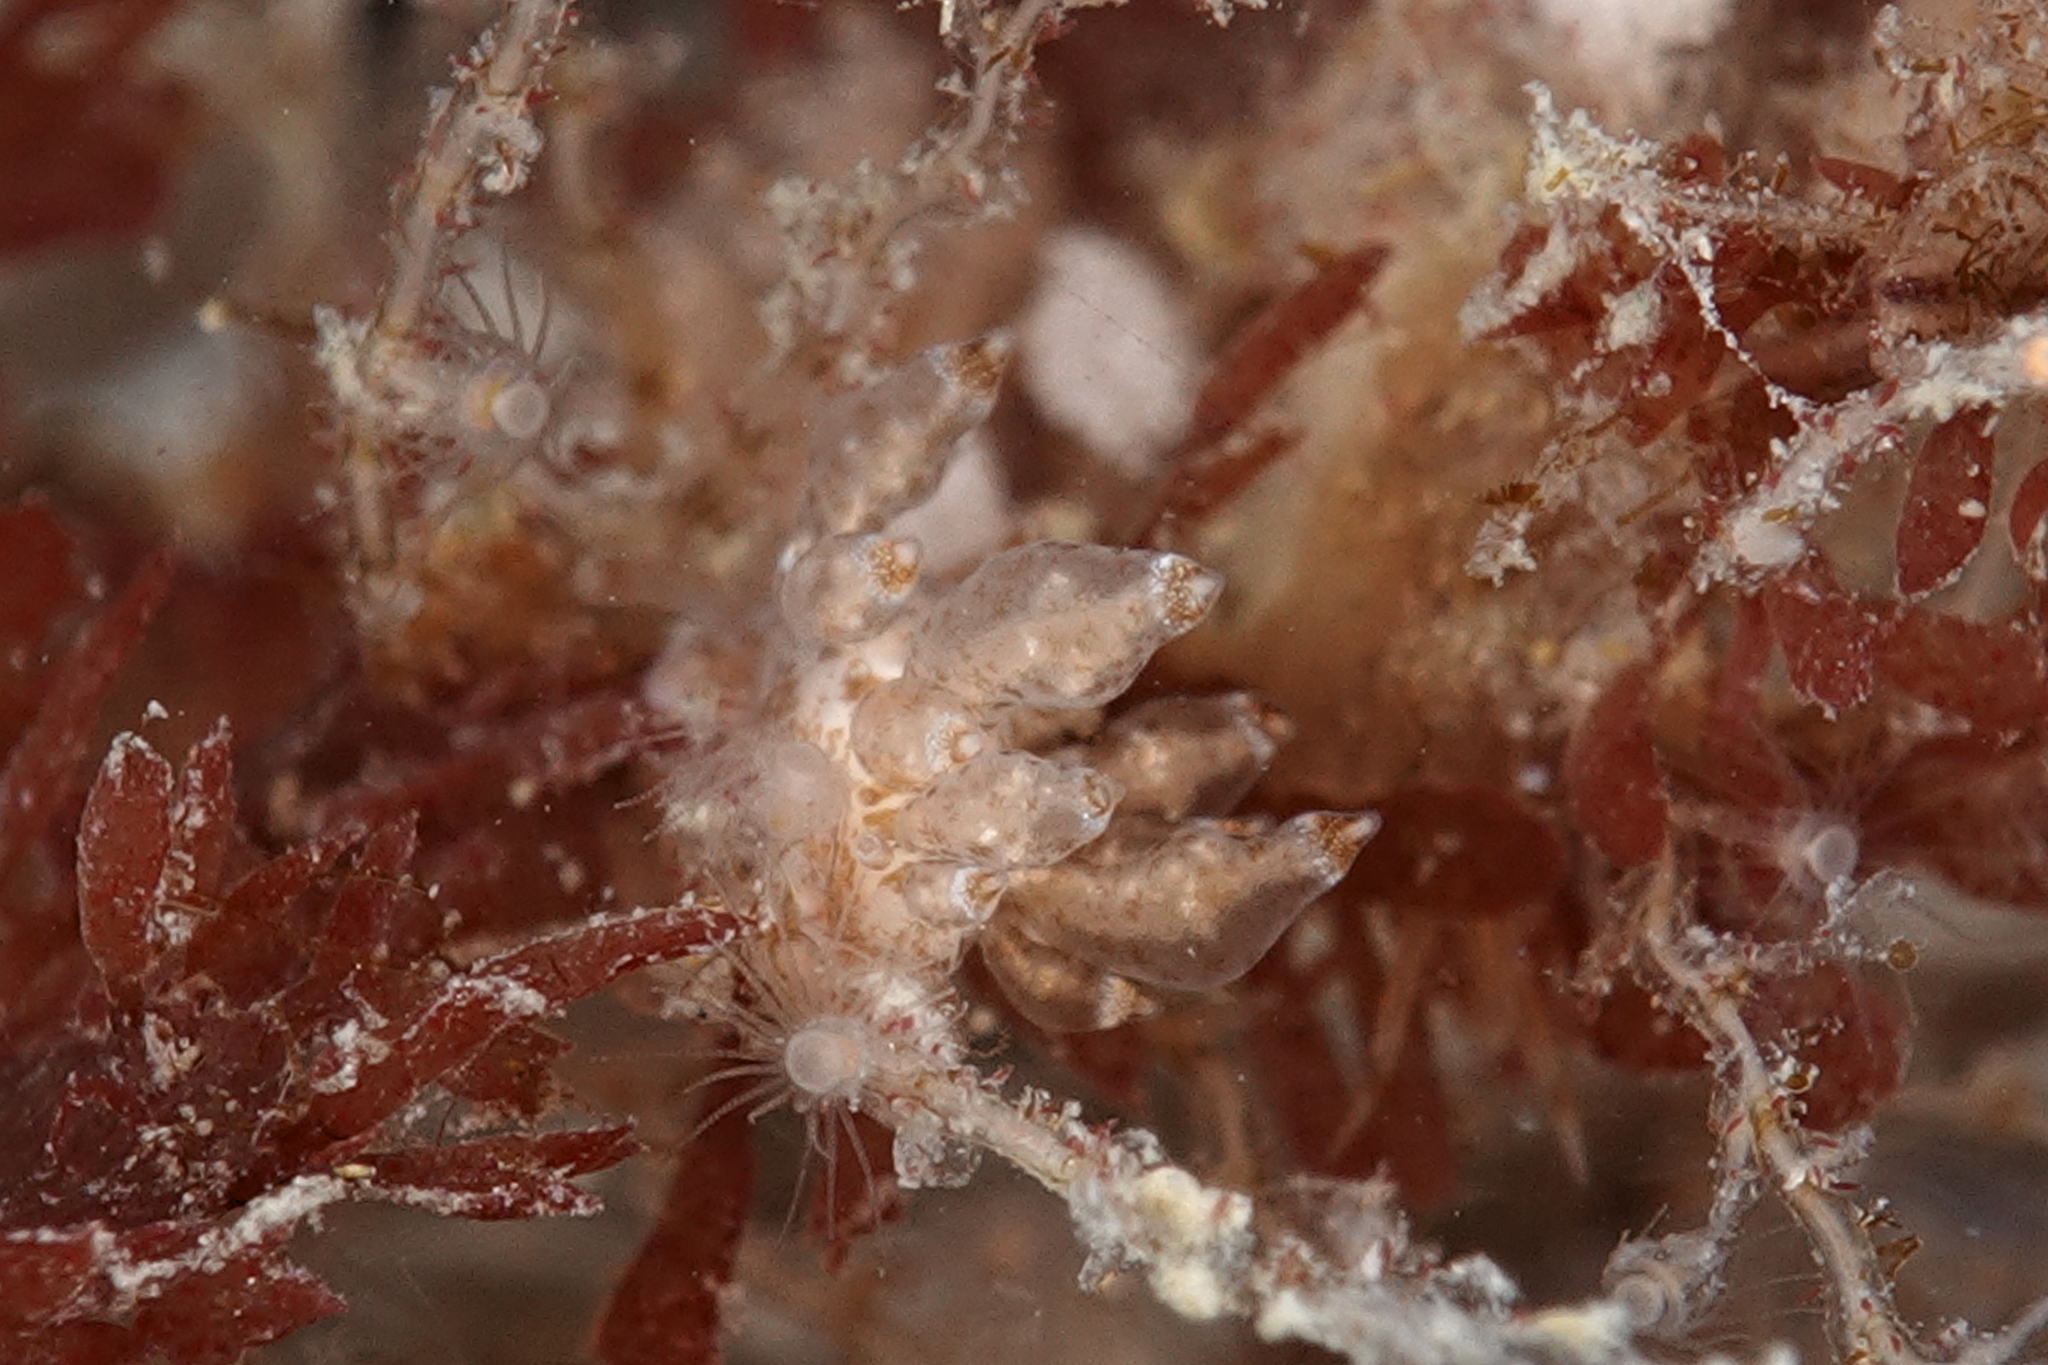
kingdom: Animalia
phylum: Mollusca
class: Gastropoda
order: Nudibranchia
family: Eubranchidae
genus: Eubranchus
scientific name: Eubranchus scintillans
